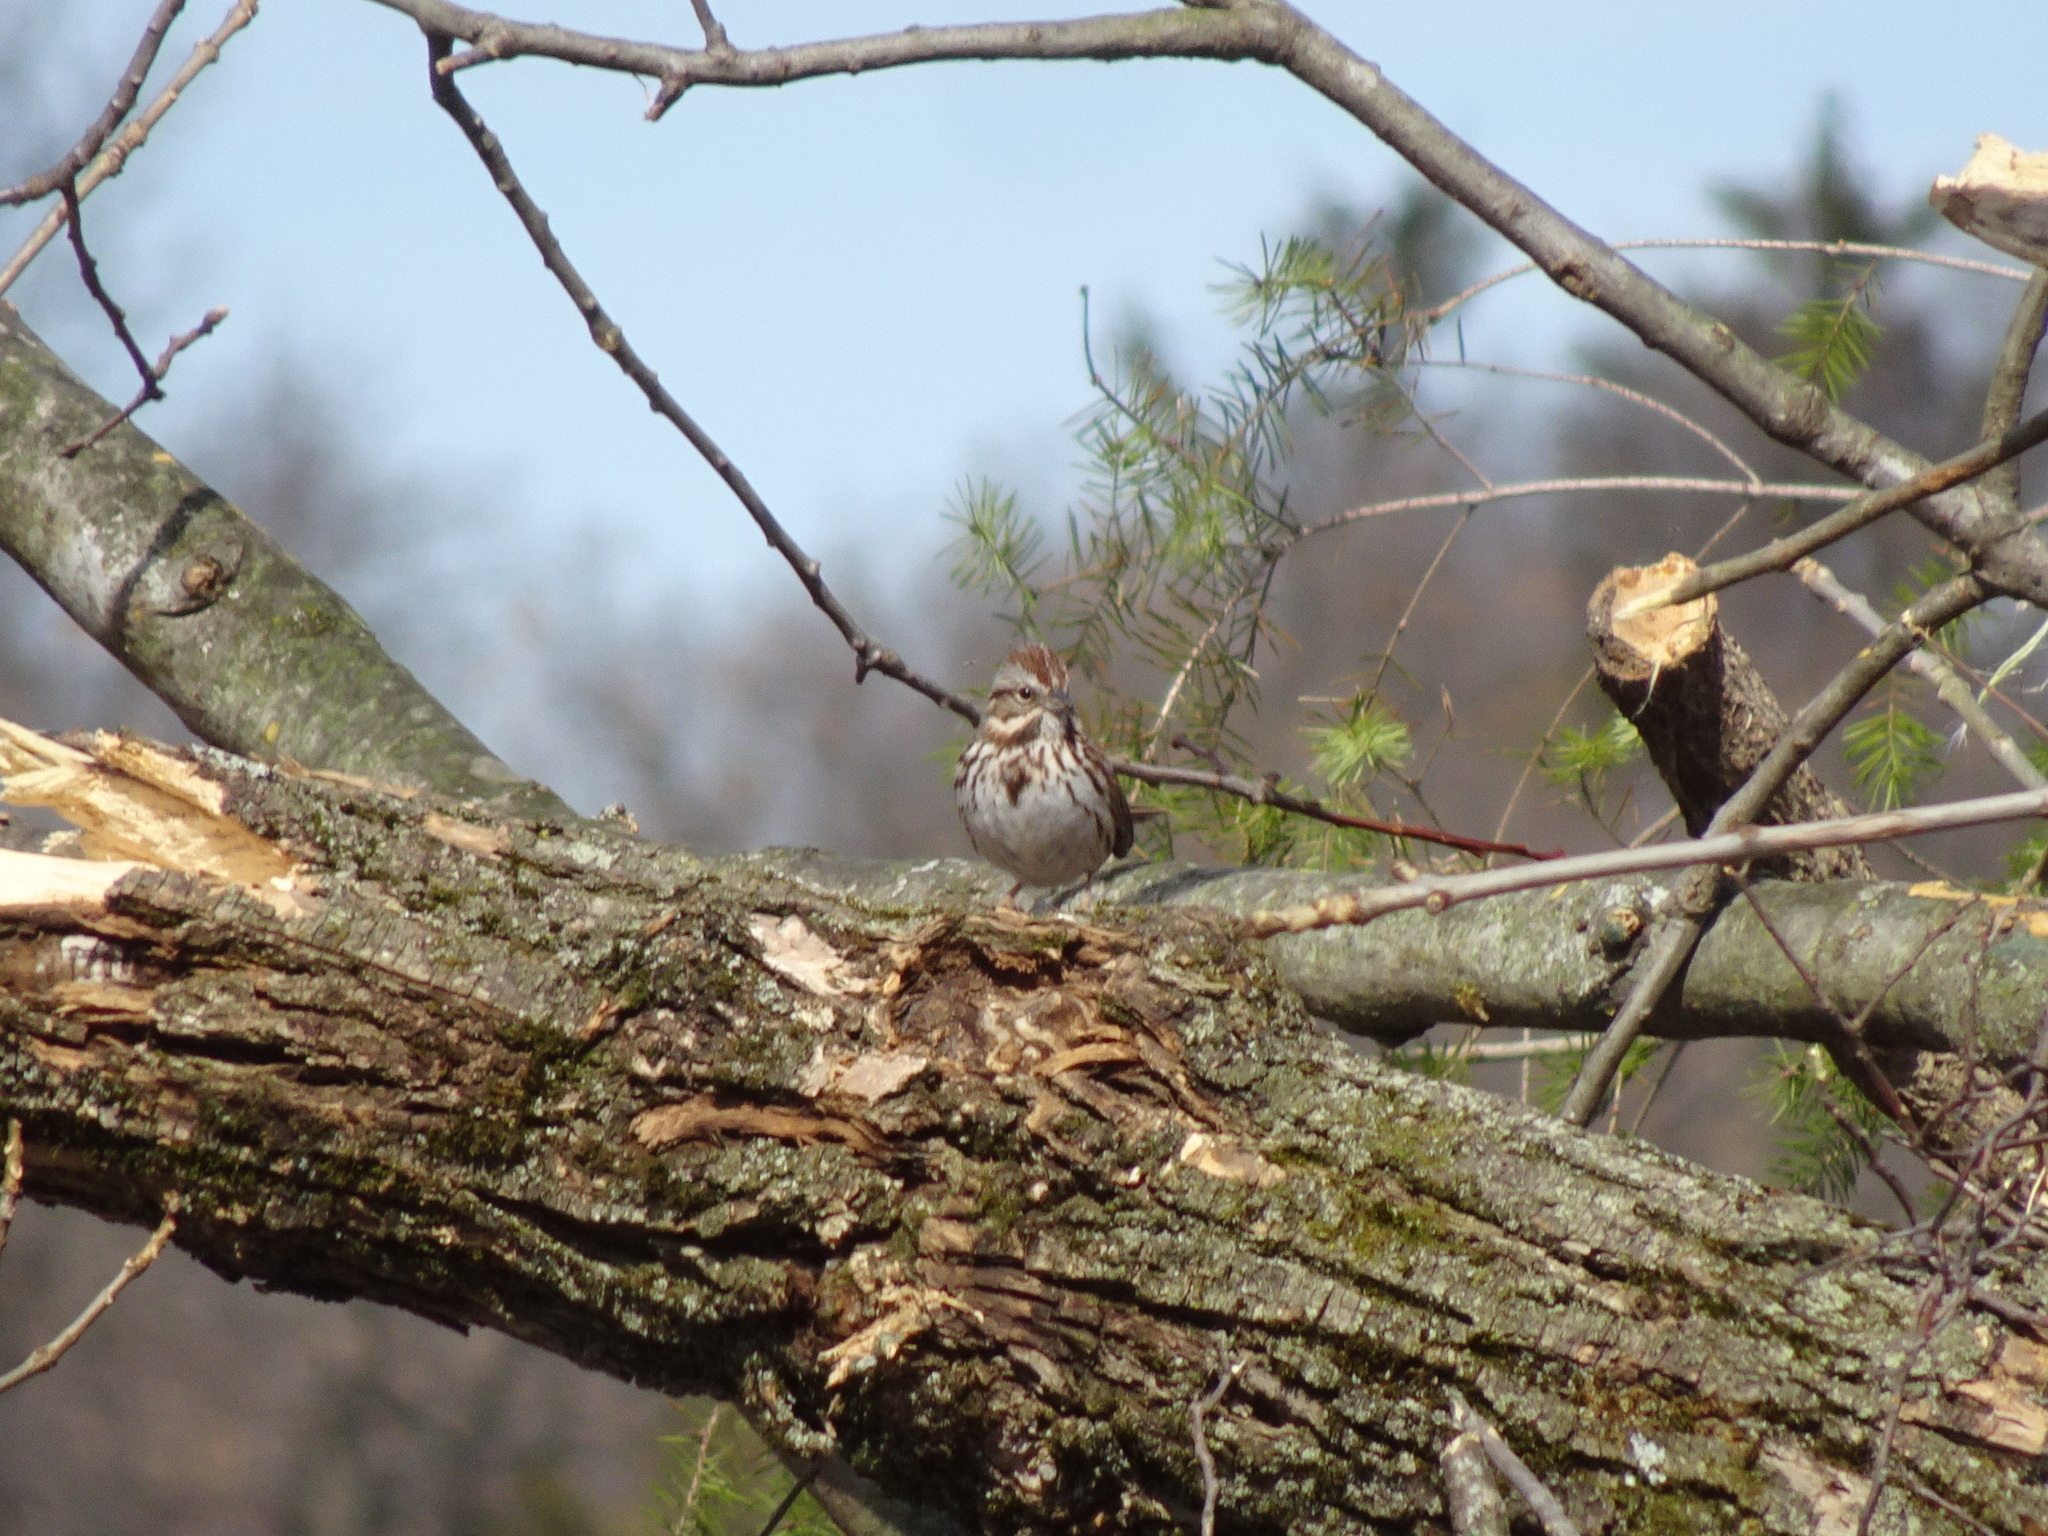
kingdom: Animalia
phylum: Chordata
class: Aves
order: Passeriformes
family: Passerellidae
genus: Melospiza
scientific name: Melospiza melodia
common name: Song sparrow
